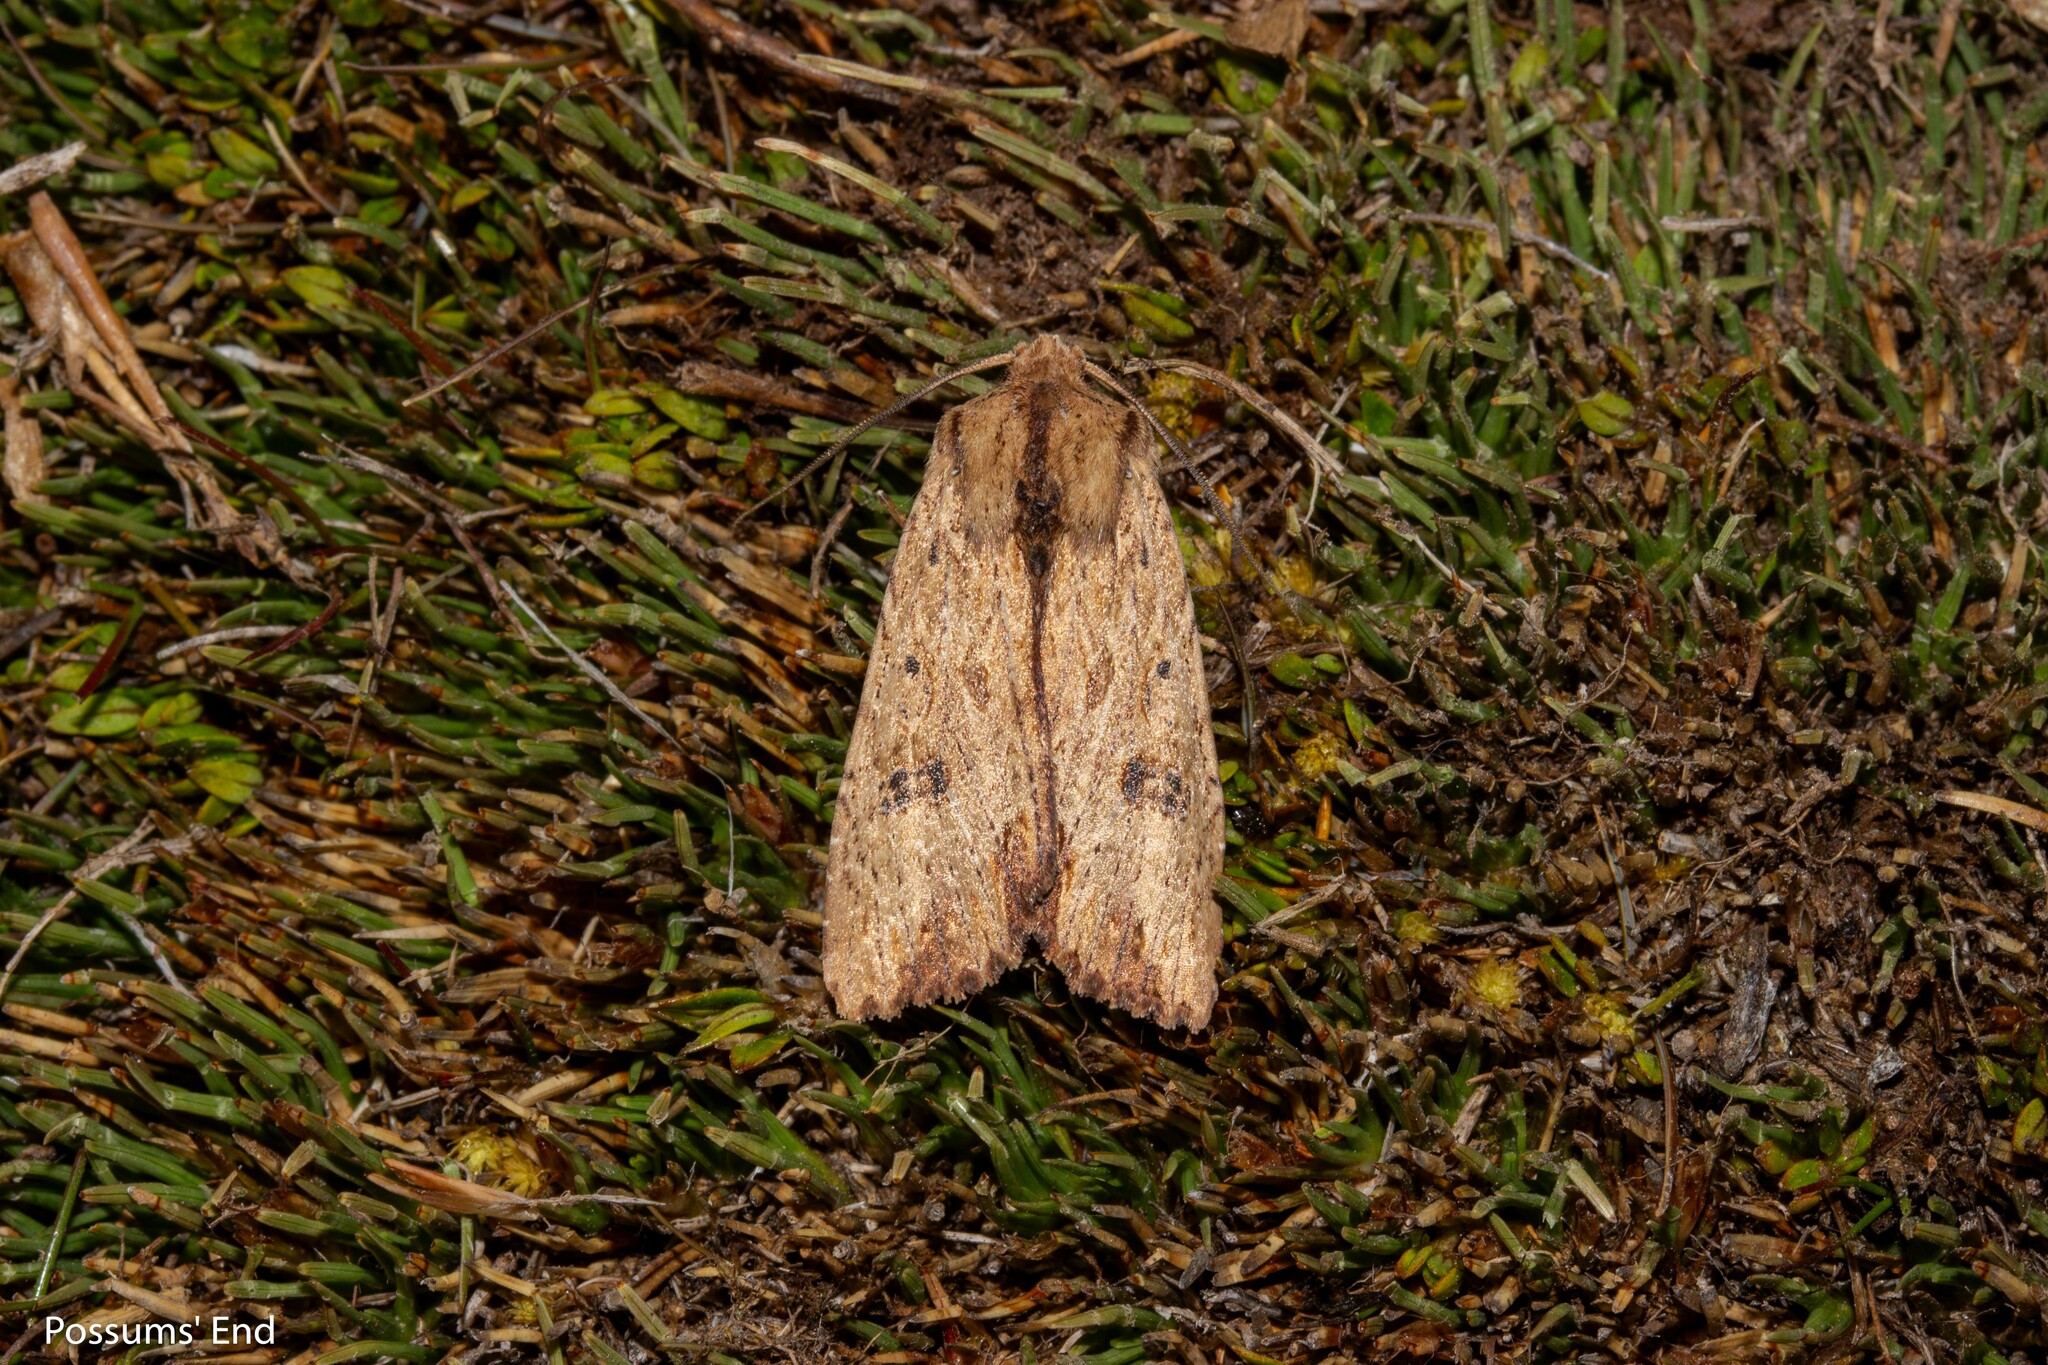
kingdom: Animalia
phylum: Arthropoda
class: Insecta
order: Lepidoptera
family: Noctuidae
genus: Ichneutica
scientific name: Ichneutica
